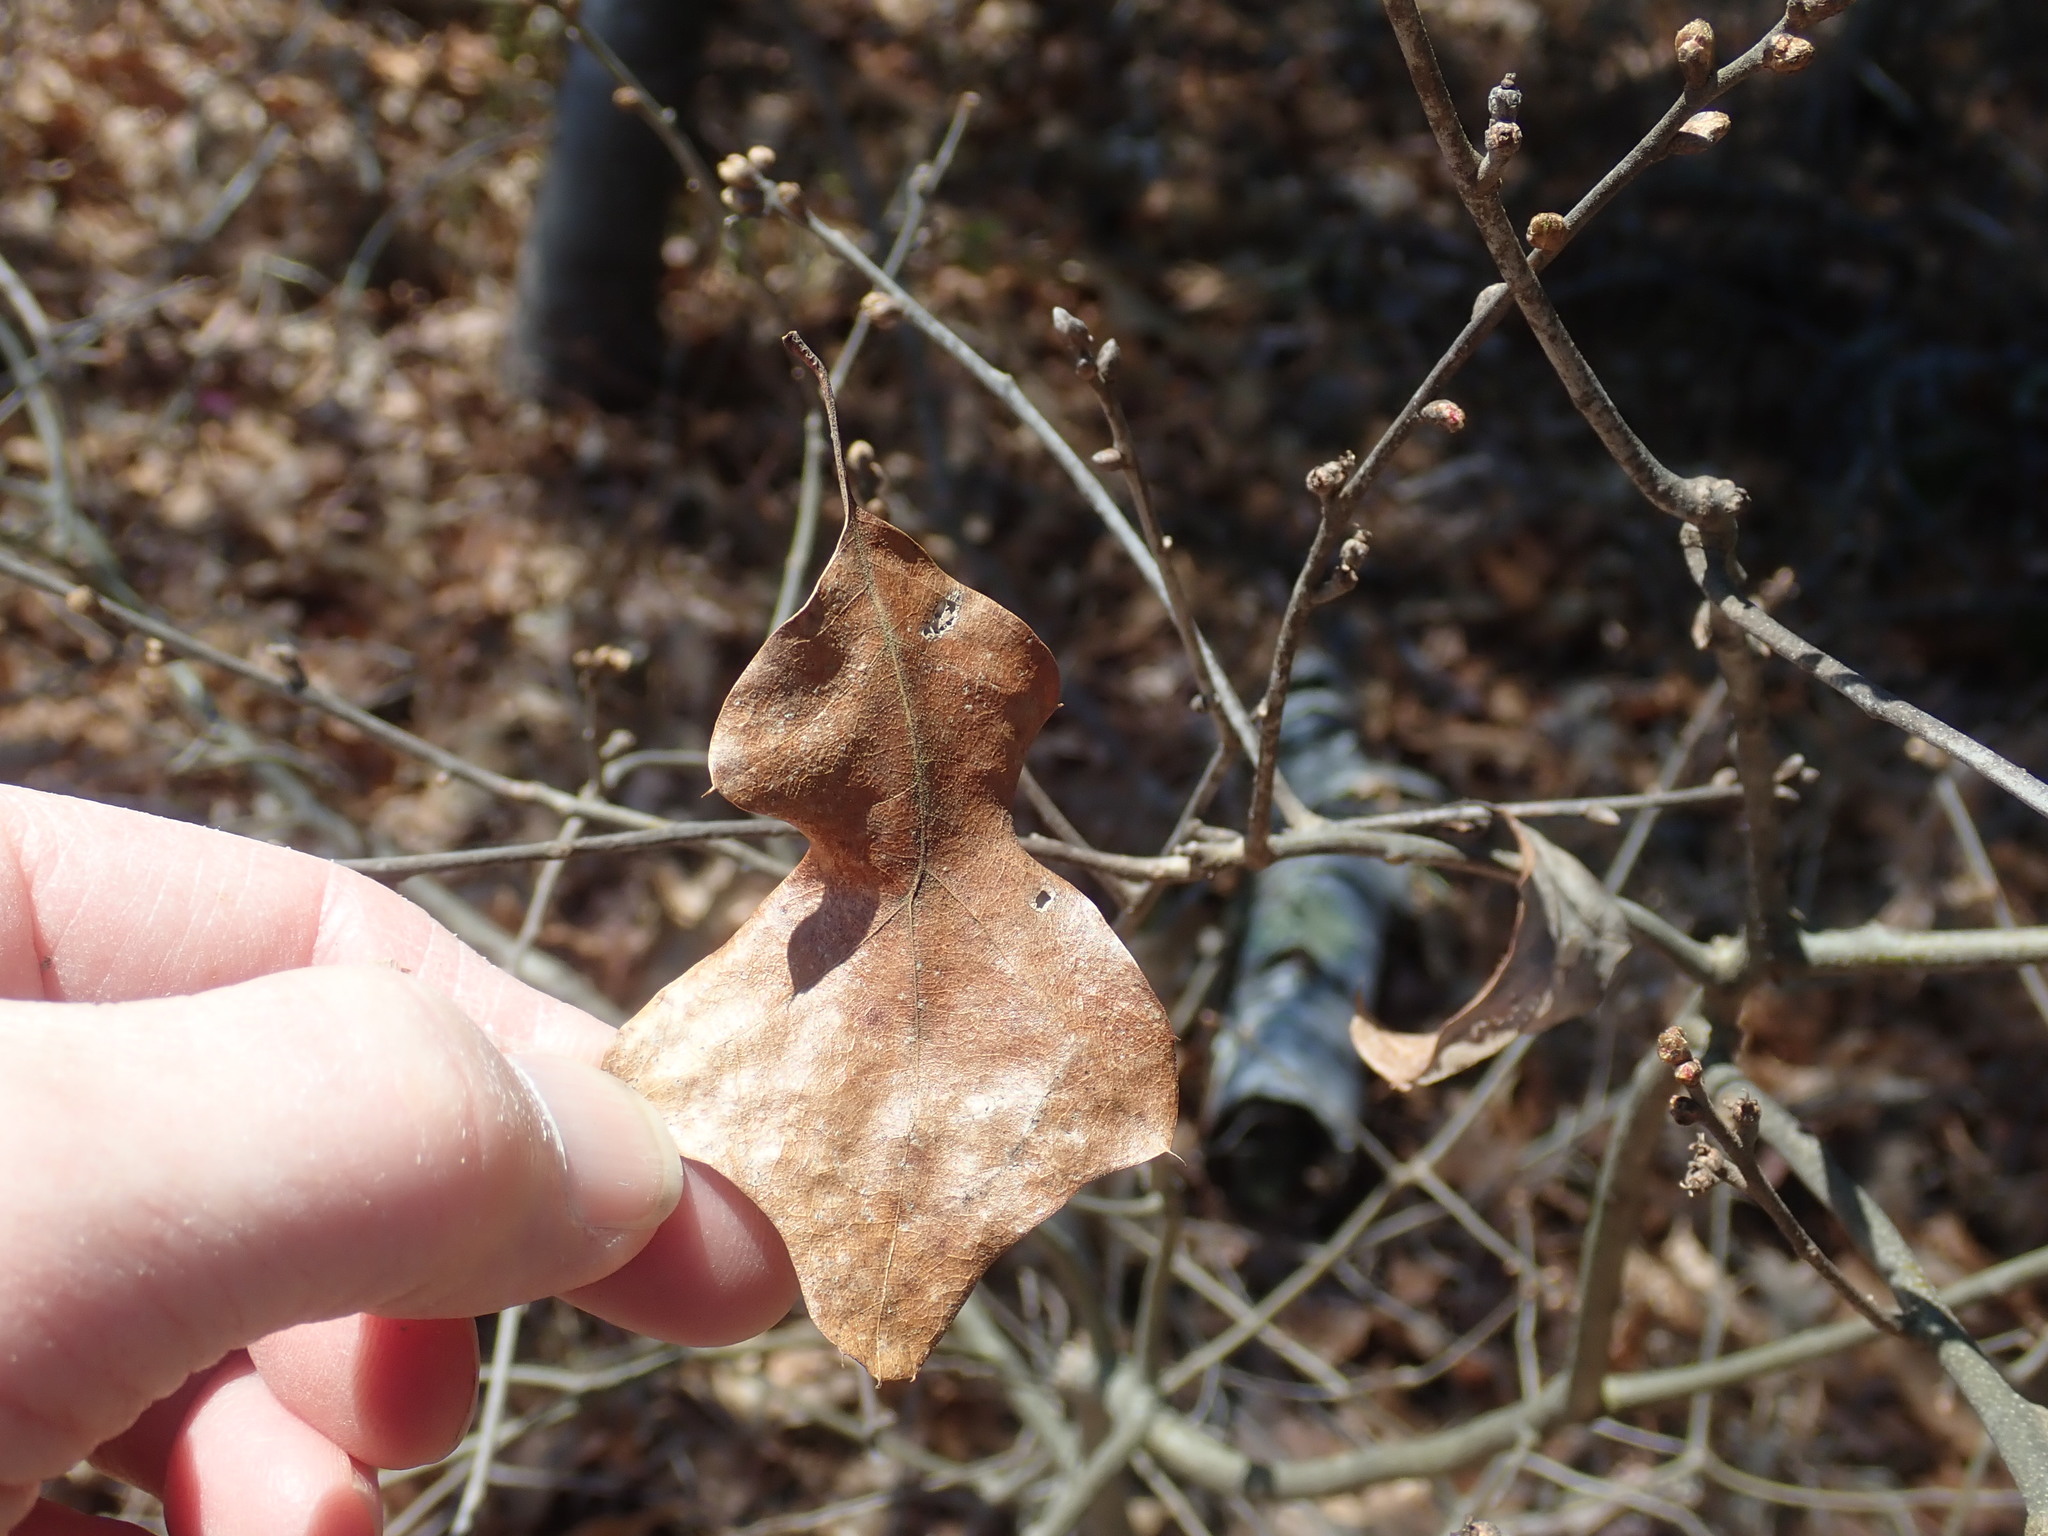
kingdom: Plantae
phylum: Tracheophyta
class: Magnoliopsida
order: Fagales
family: Fagaceae
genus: Quercus
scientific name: Quercus ilicifolia
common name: Bear oak
